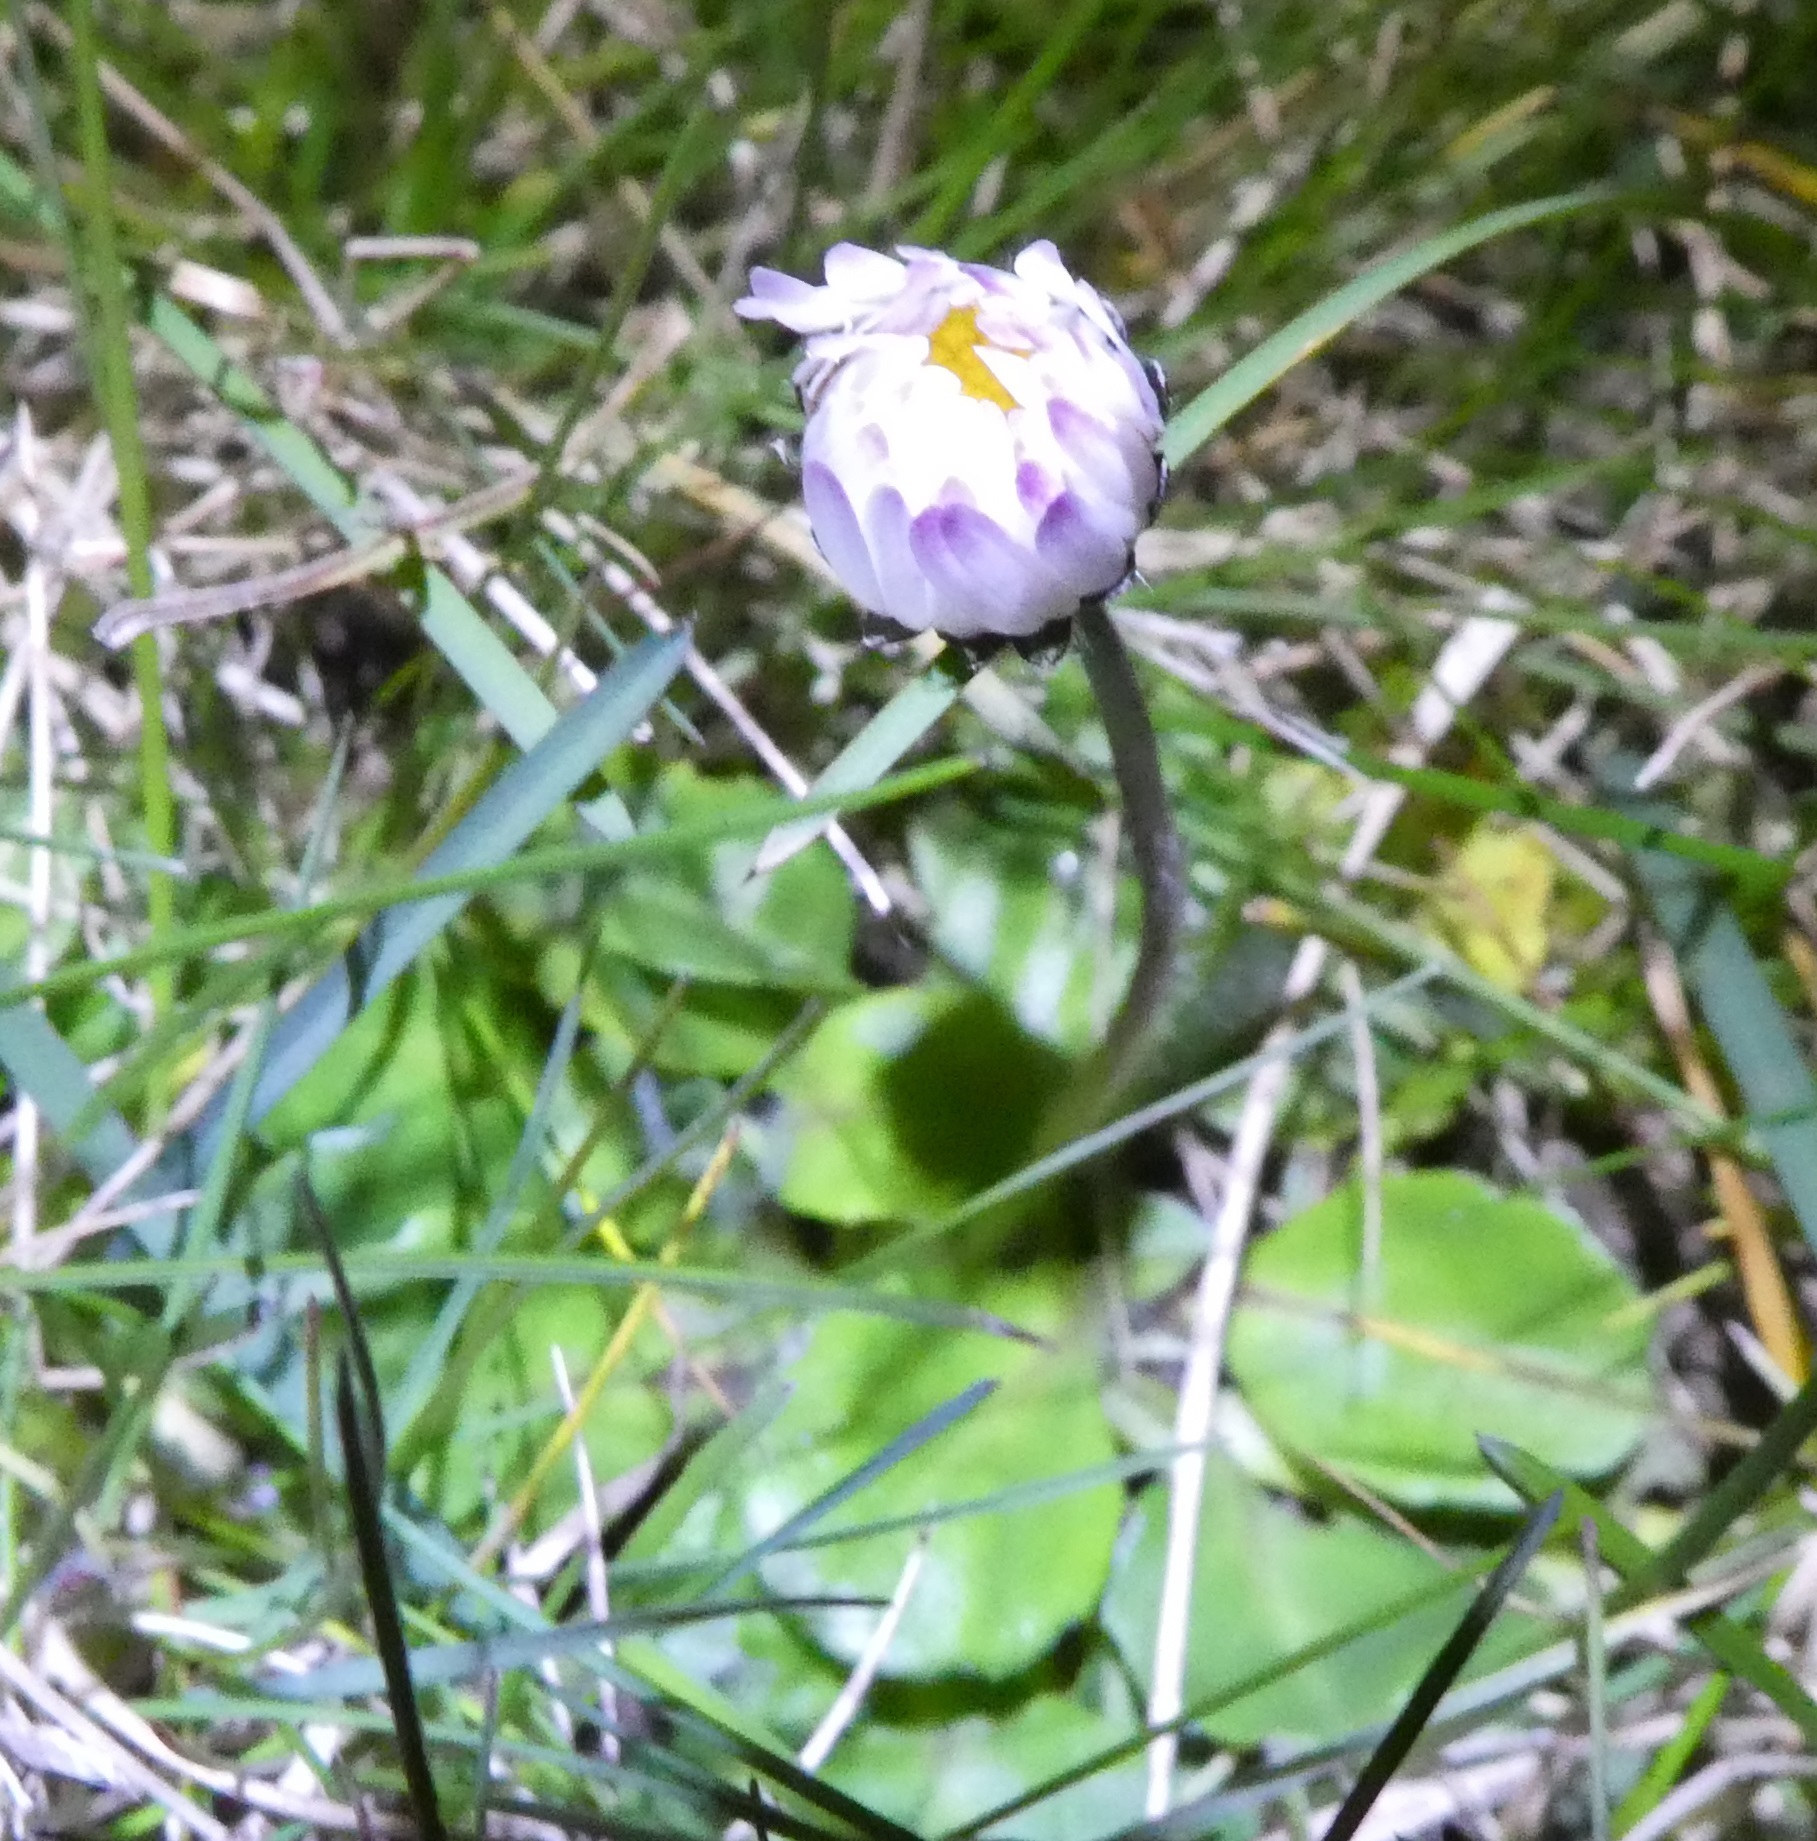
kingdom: Plantae
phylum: Tracheophyta
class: Magnoliopsida
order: Asterales
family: Asteraceae
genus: Bellis
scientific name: Bellis perennis
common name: Lawndaisy
